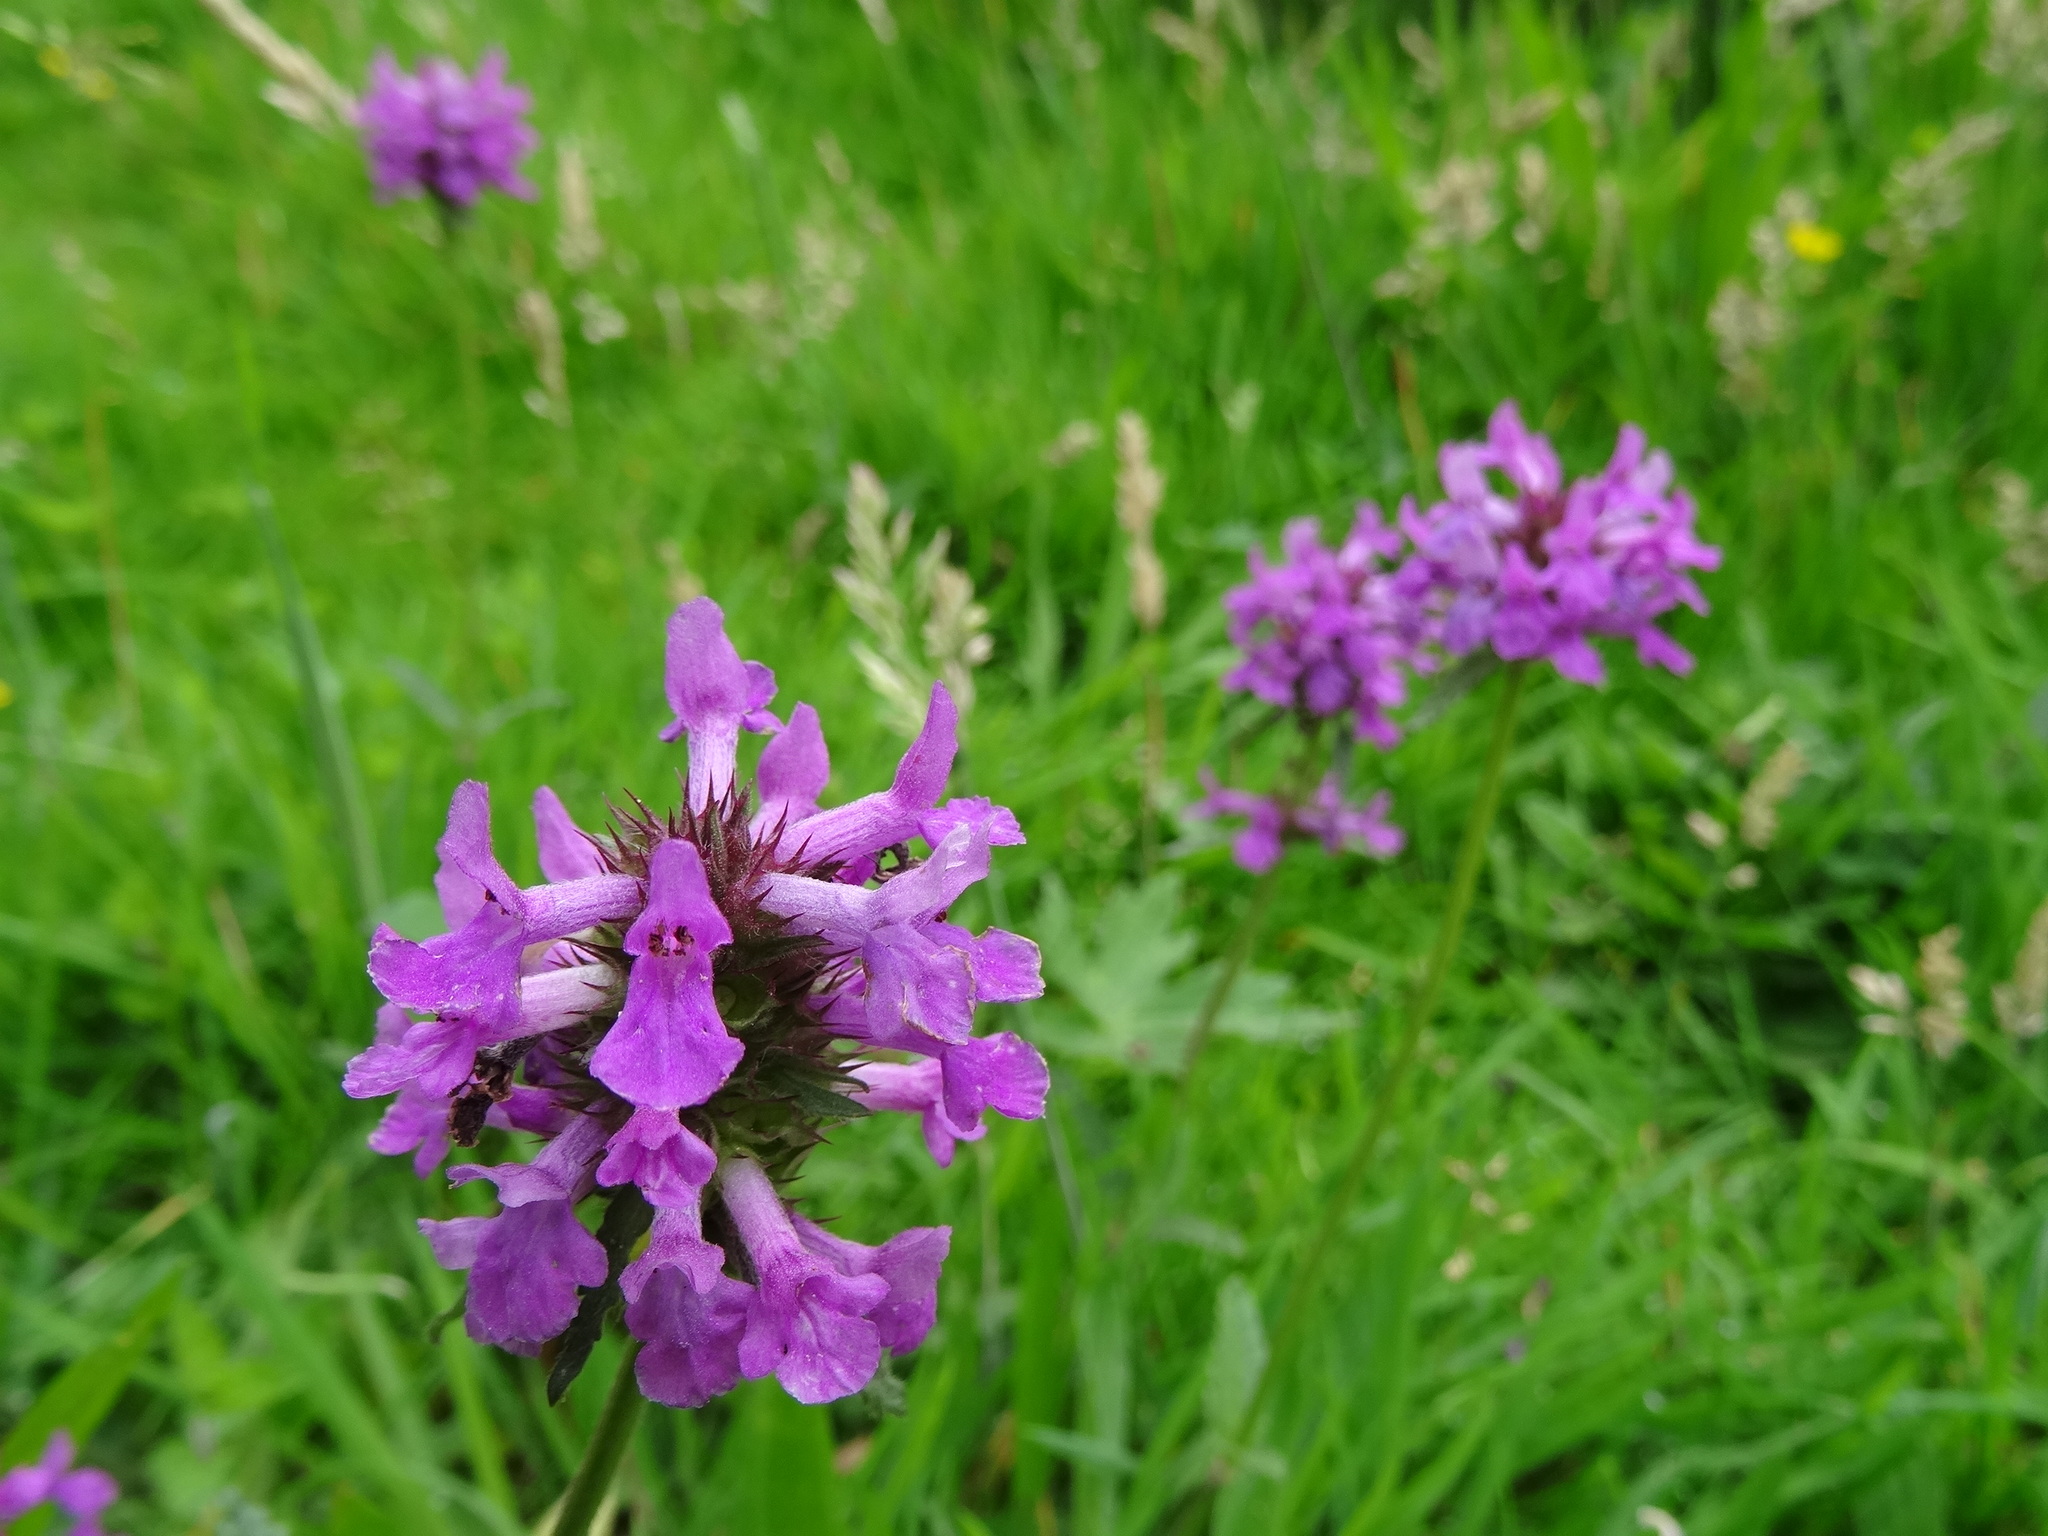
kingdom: Plantae
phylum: Tracheophyta
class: Magnoliopsida
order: Lamiales
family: Lamiaceae
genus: Betonica
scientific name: Betonica officinalis
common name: Bishop's-wort
